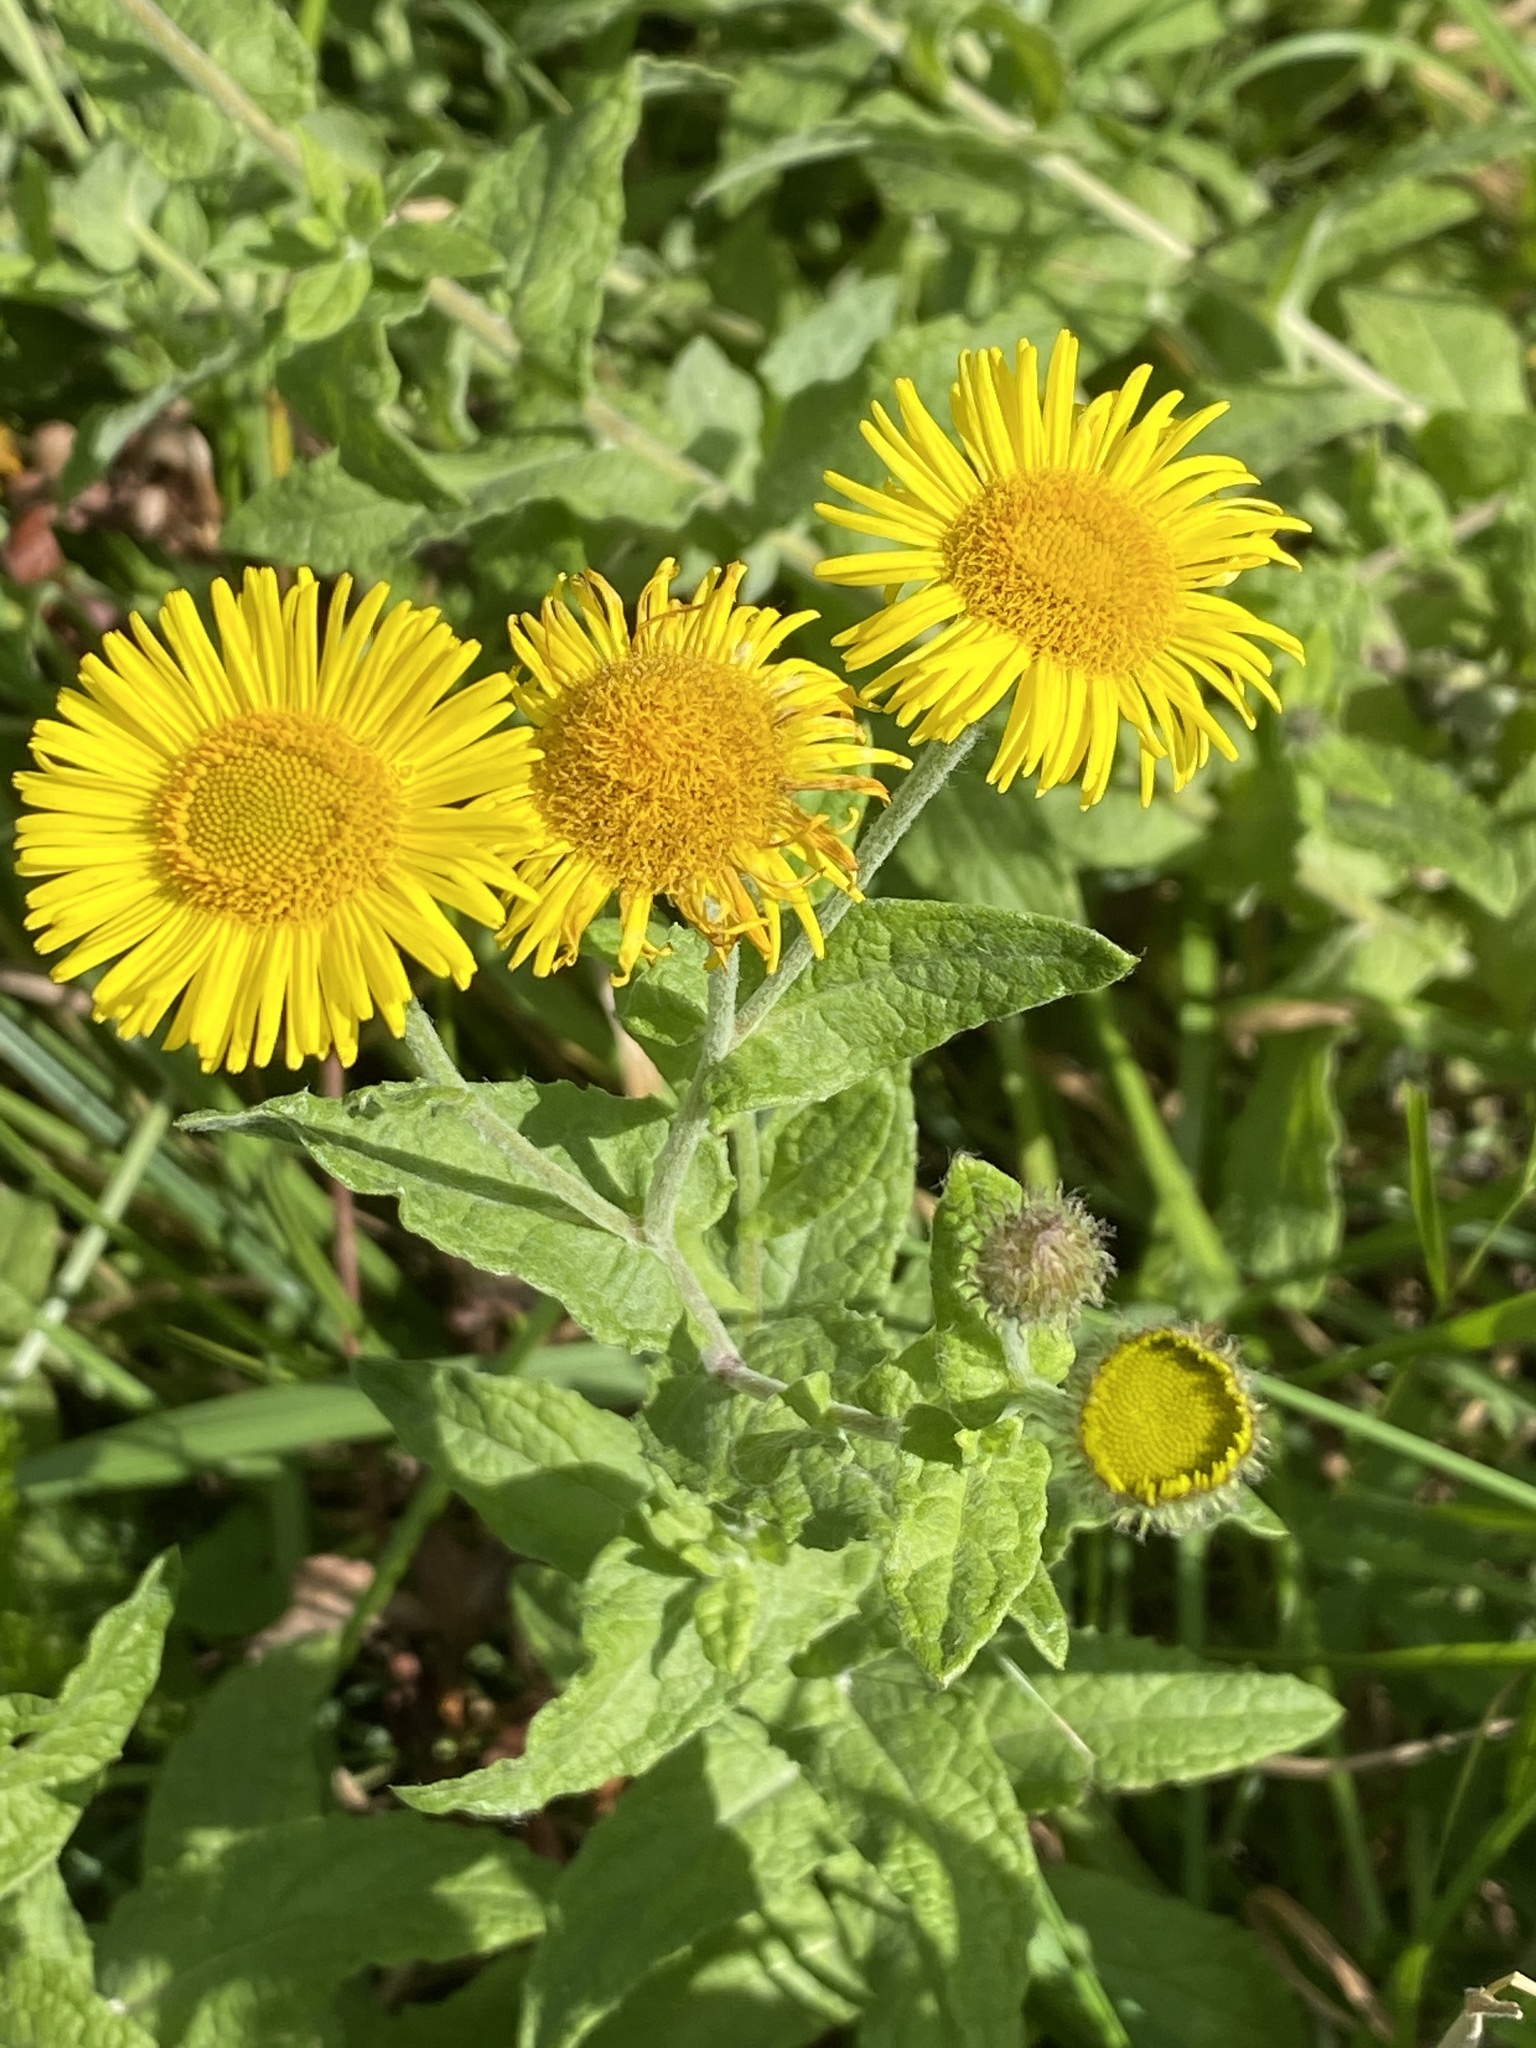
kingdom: Plantae
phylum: Tracheophyta
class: Magnoliopsida
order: Asterales
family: Asteraceae
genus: Pulicaria
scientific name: Pulicaria dysenterica
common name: Common fleabane
